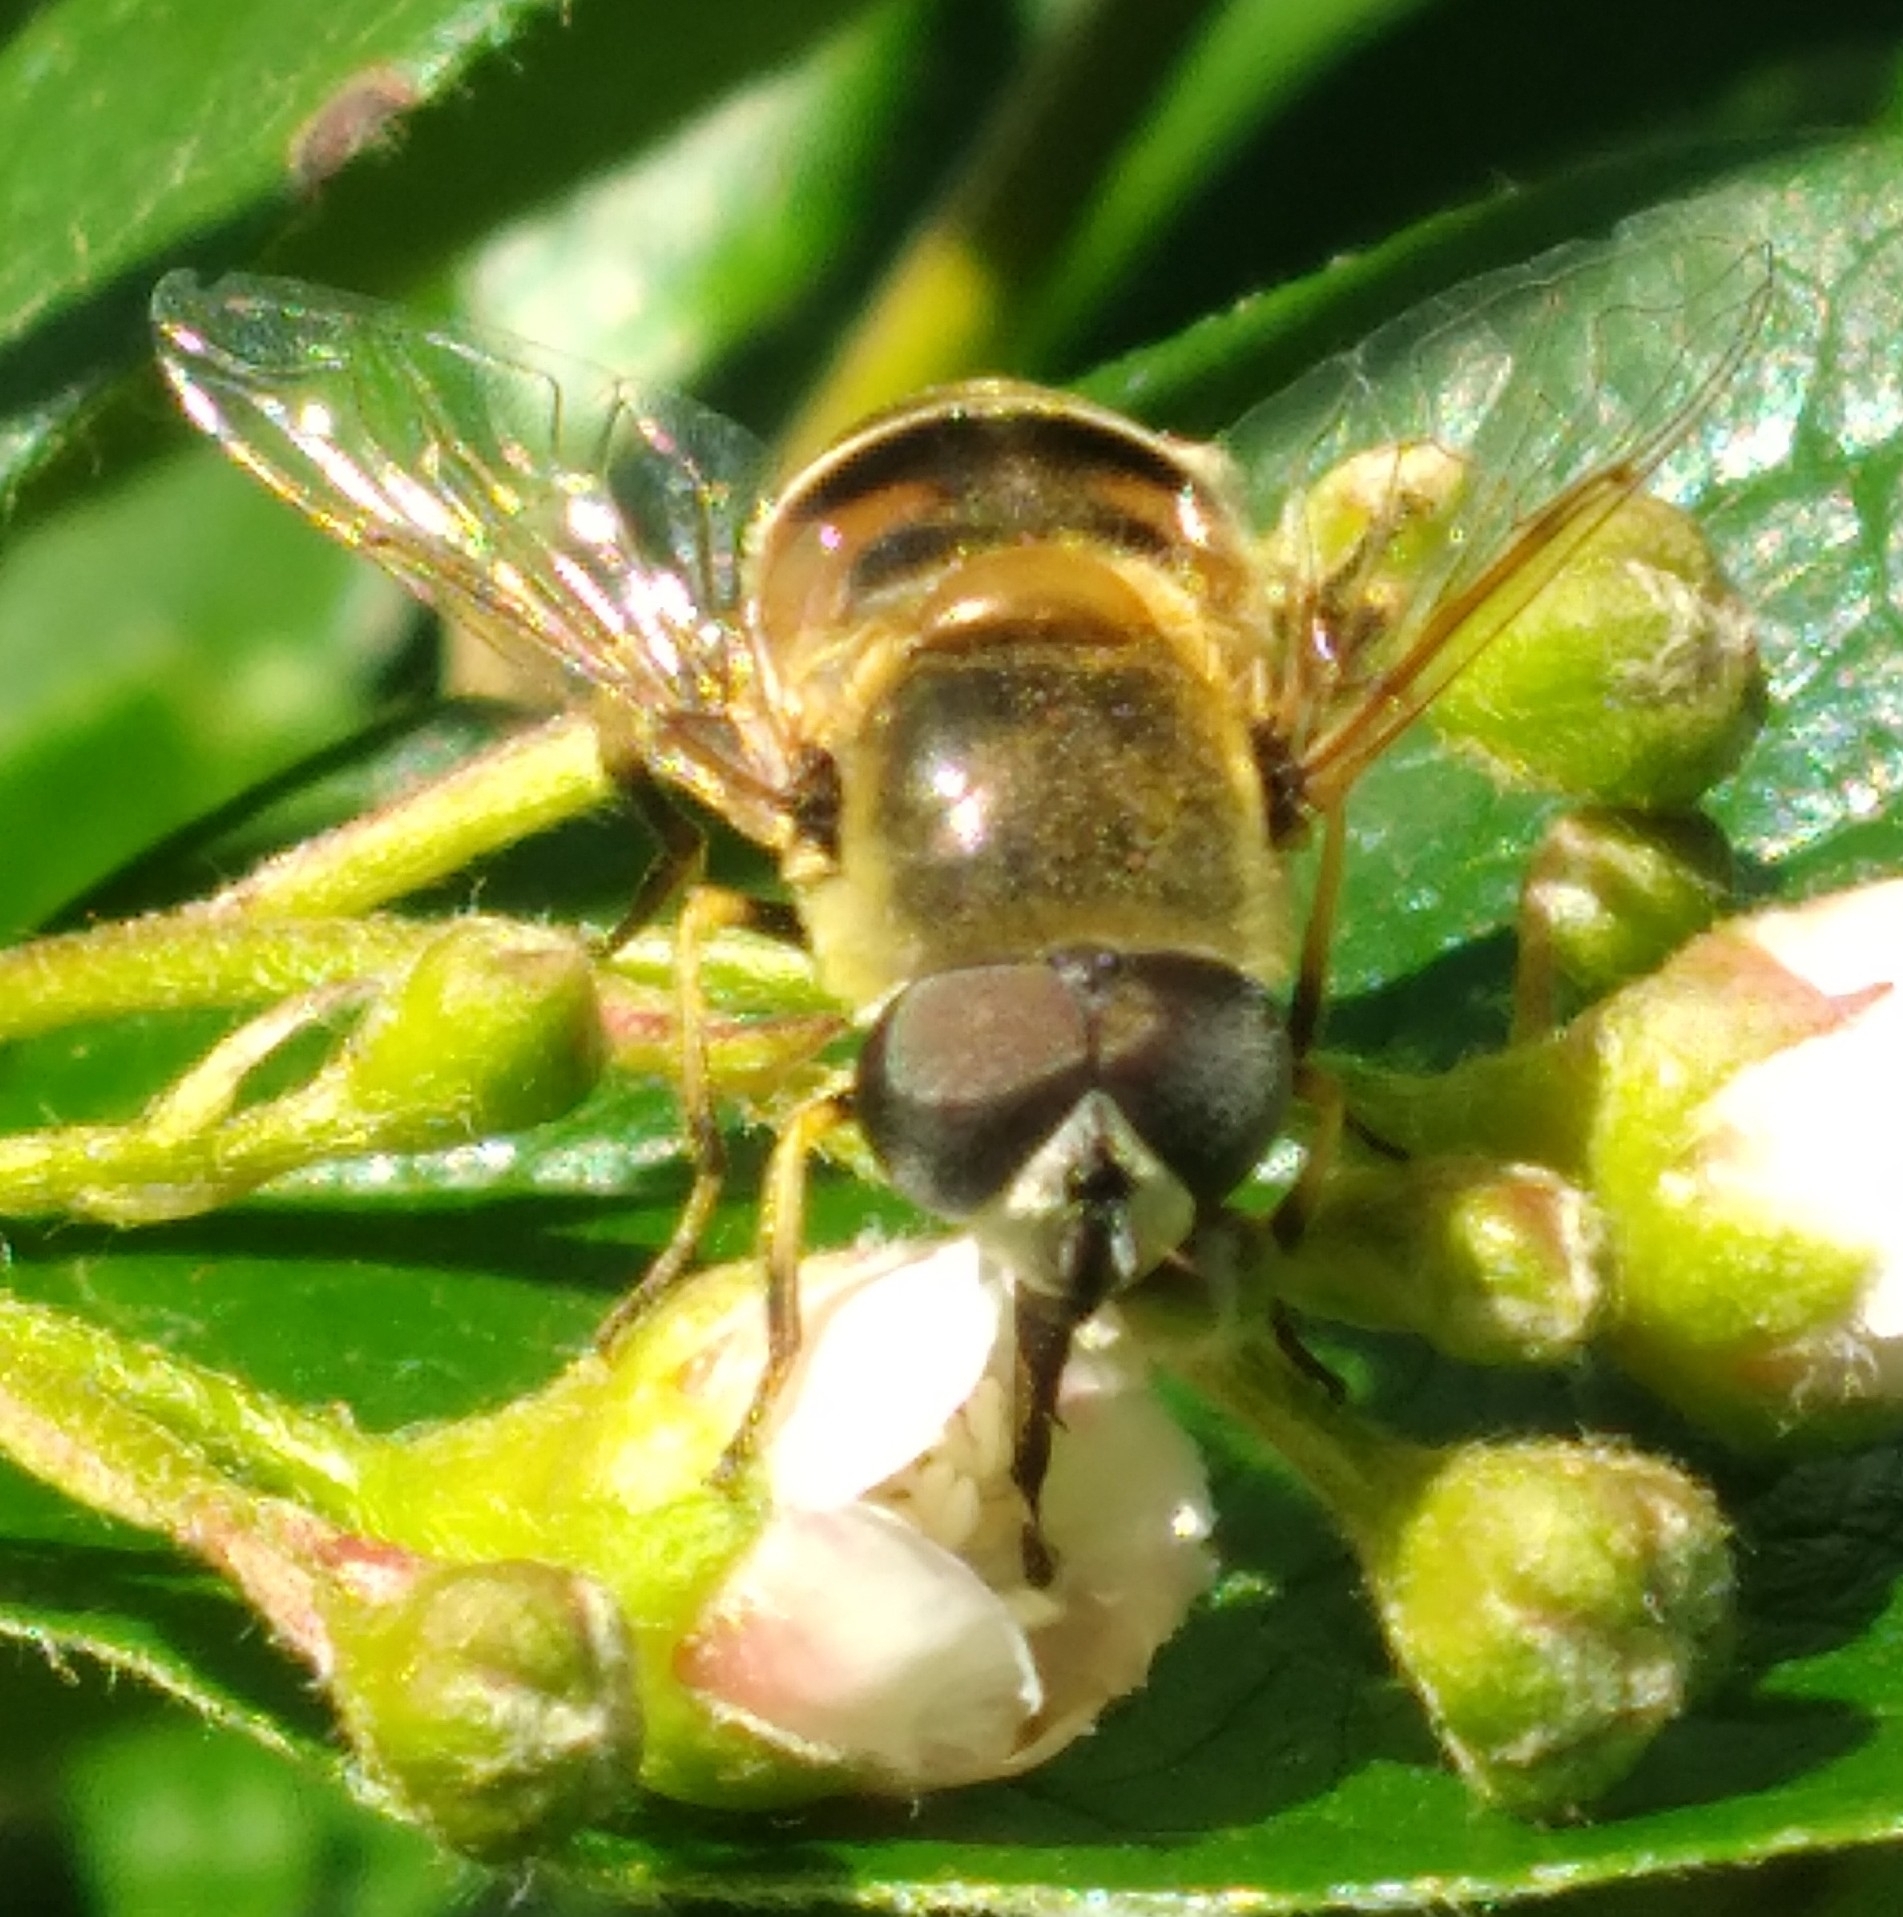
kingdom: Animalia
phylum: Arthropoda
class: Insecta
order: Diptera
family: Syrphidae
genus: Eristalis
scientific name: Eristalis stipator
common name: Yellow-shouldered drone fly
